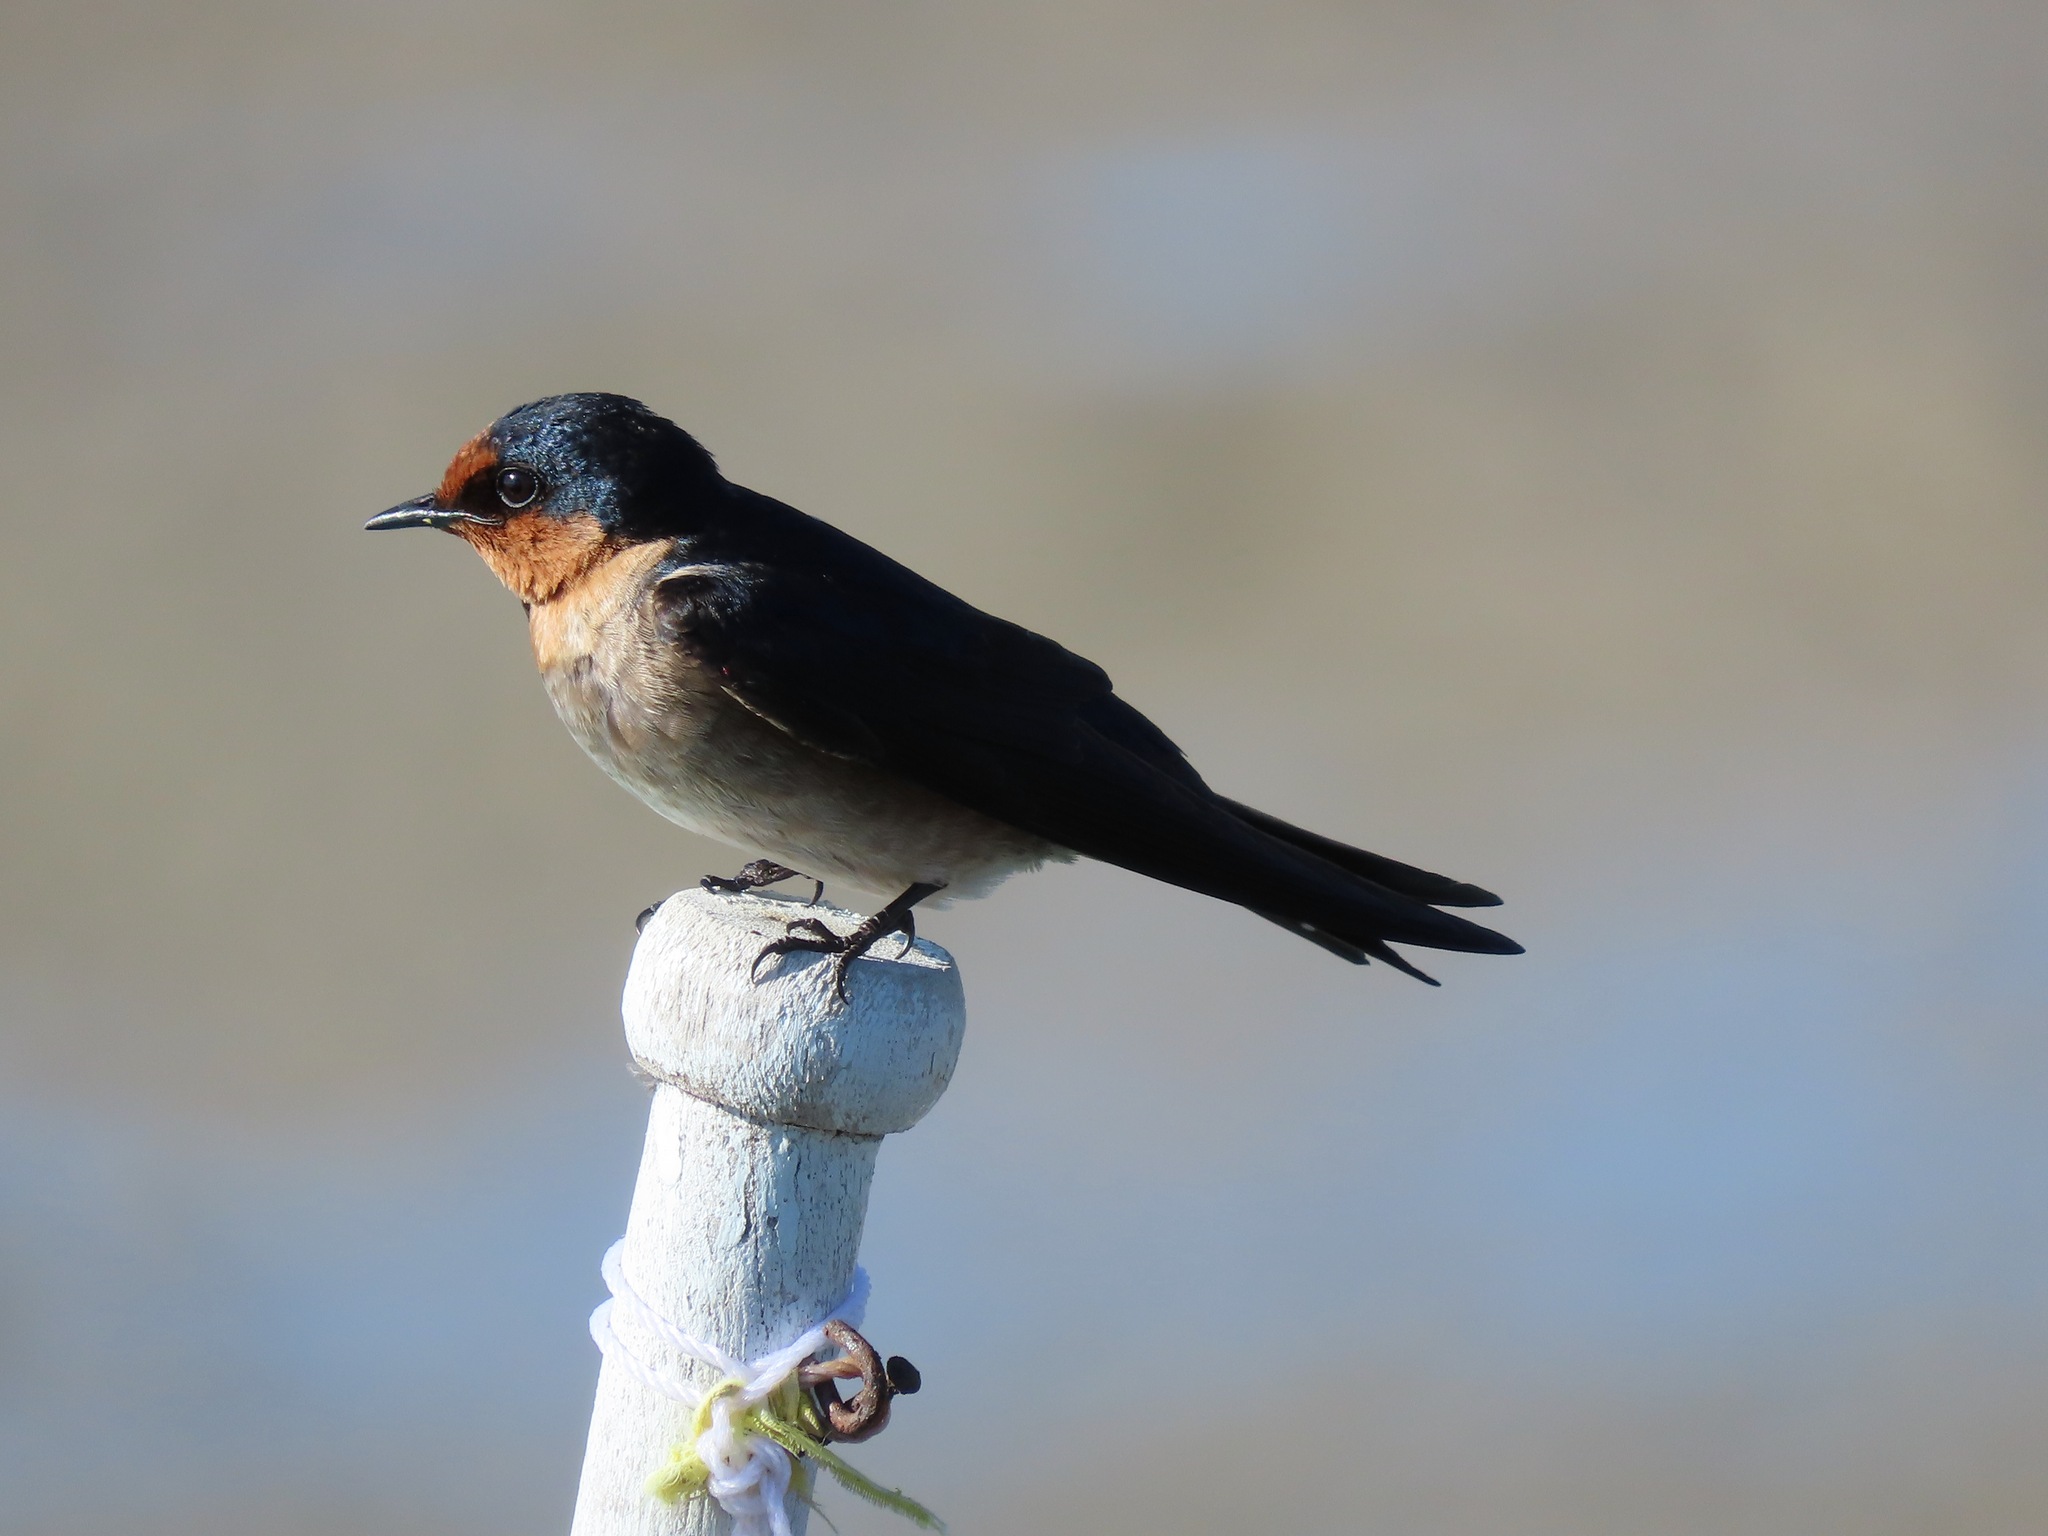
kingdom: Animalia
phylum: Chordata
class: Aves
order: Passeriformes
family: Hirundinidae
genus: Hirundo
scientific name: Hirundo tahitica
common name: Pacific swallow
